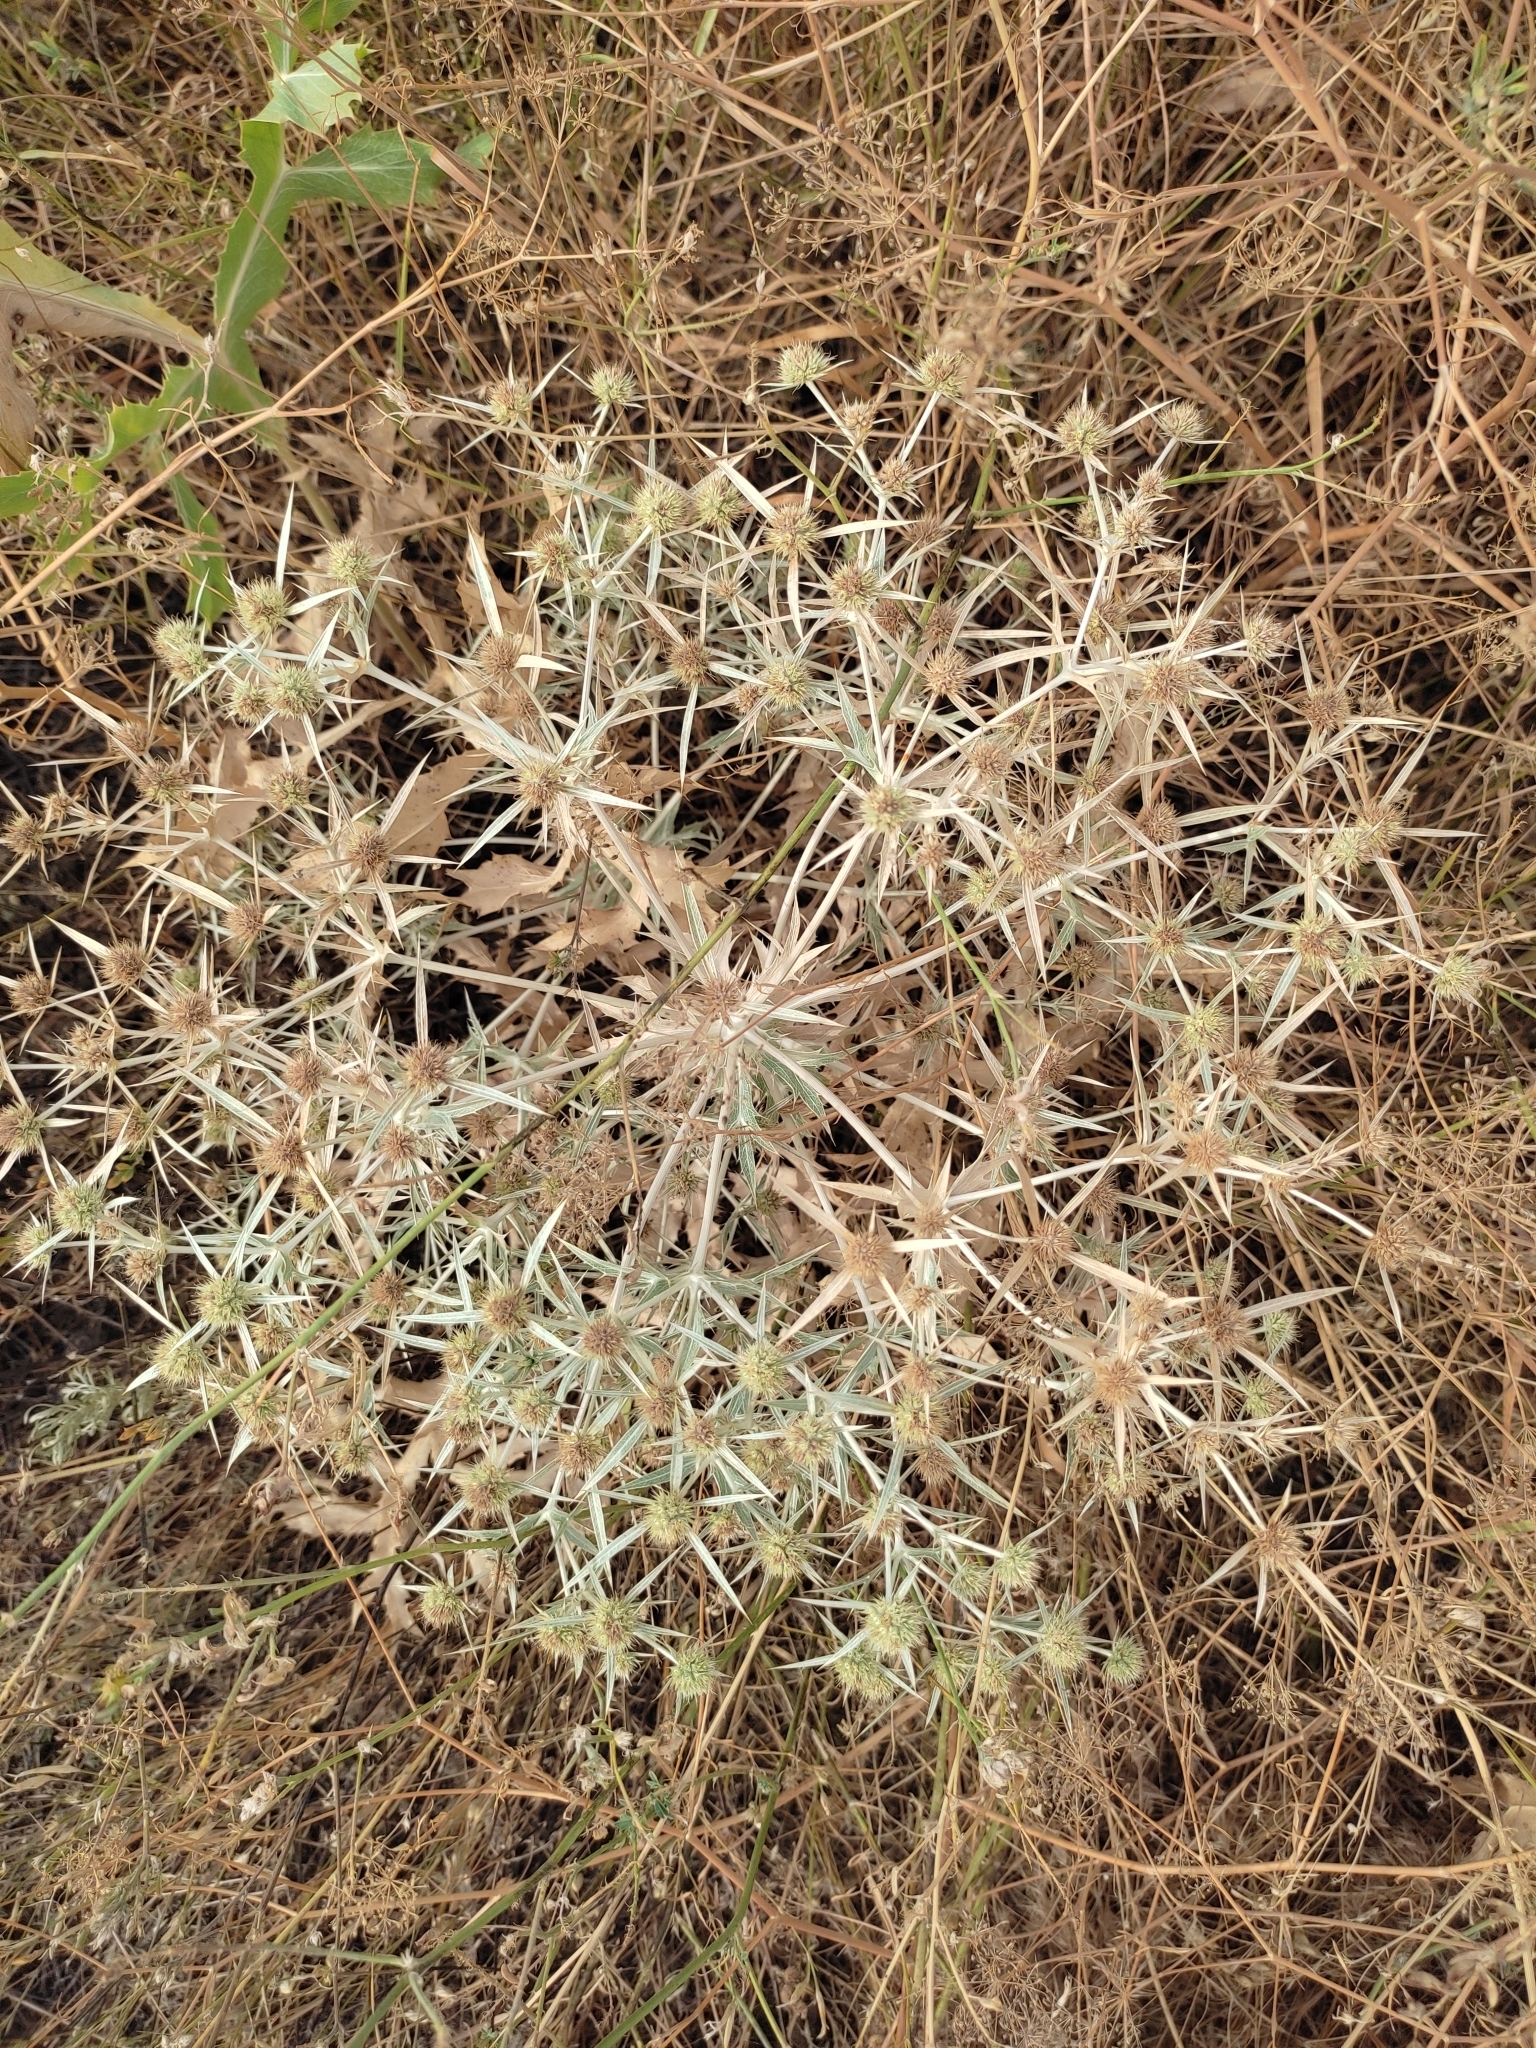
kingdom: Plantae
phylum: Tracheophyta
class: Magnoliopsida
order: Apiales
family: Apiaceae
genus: Eryngium
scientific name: Eryngium campestre
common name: Field eryngo
